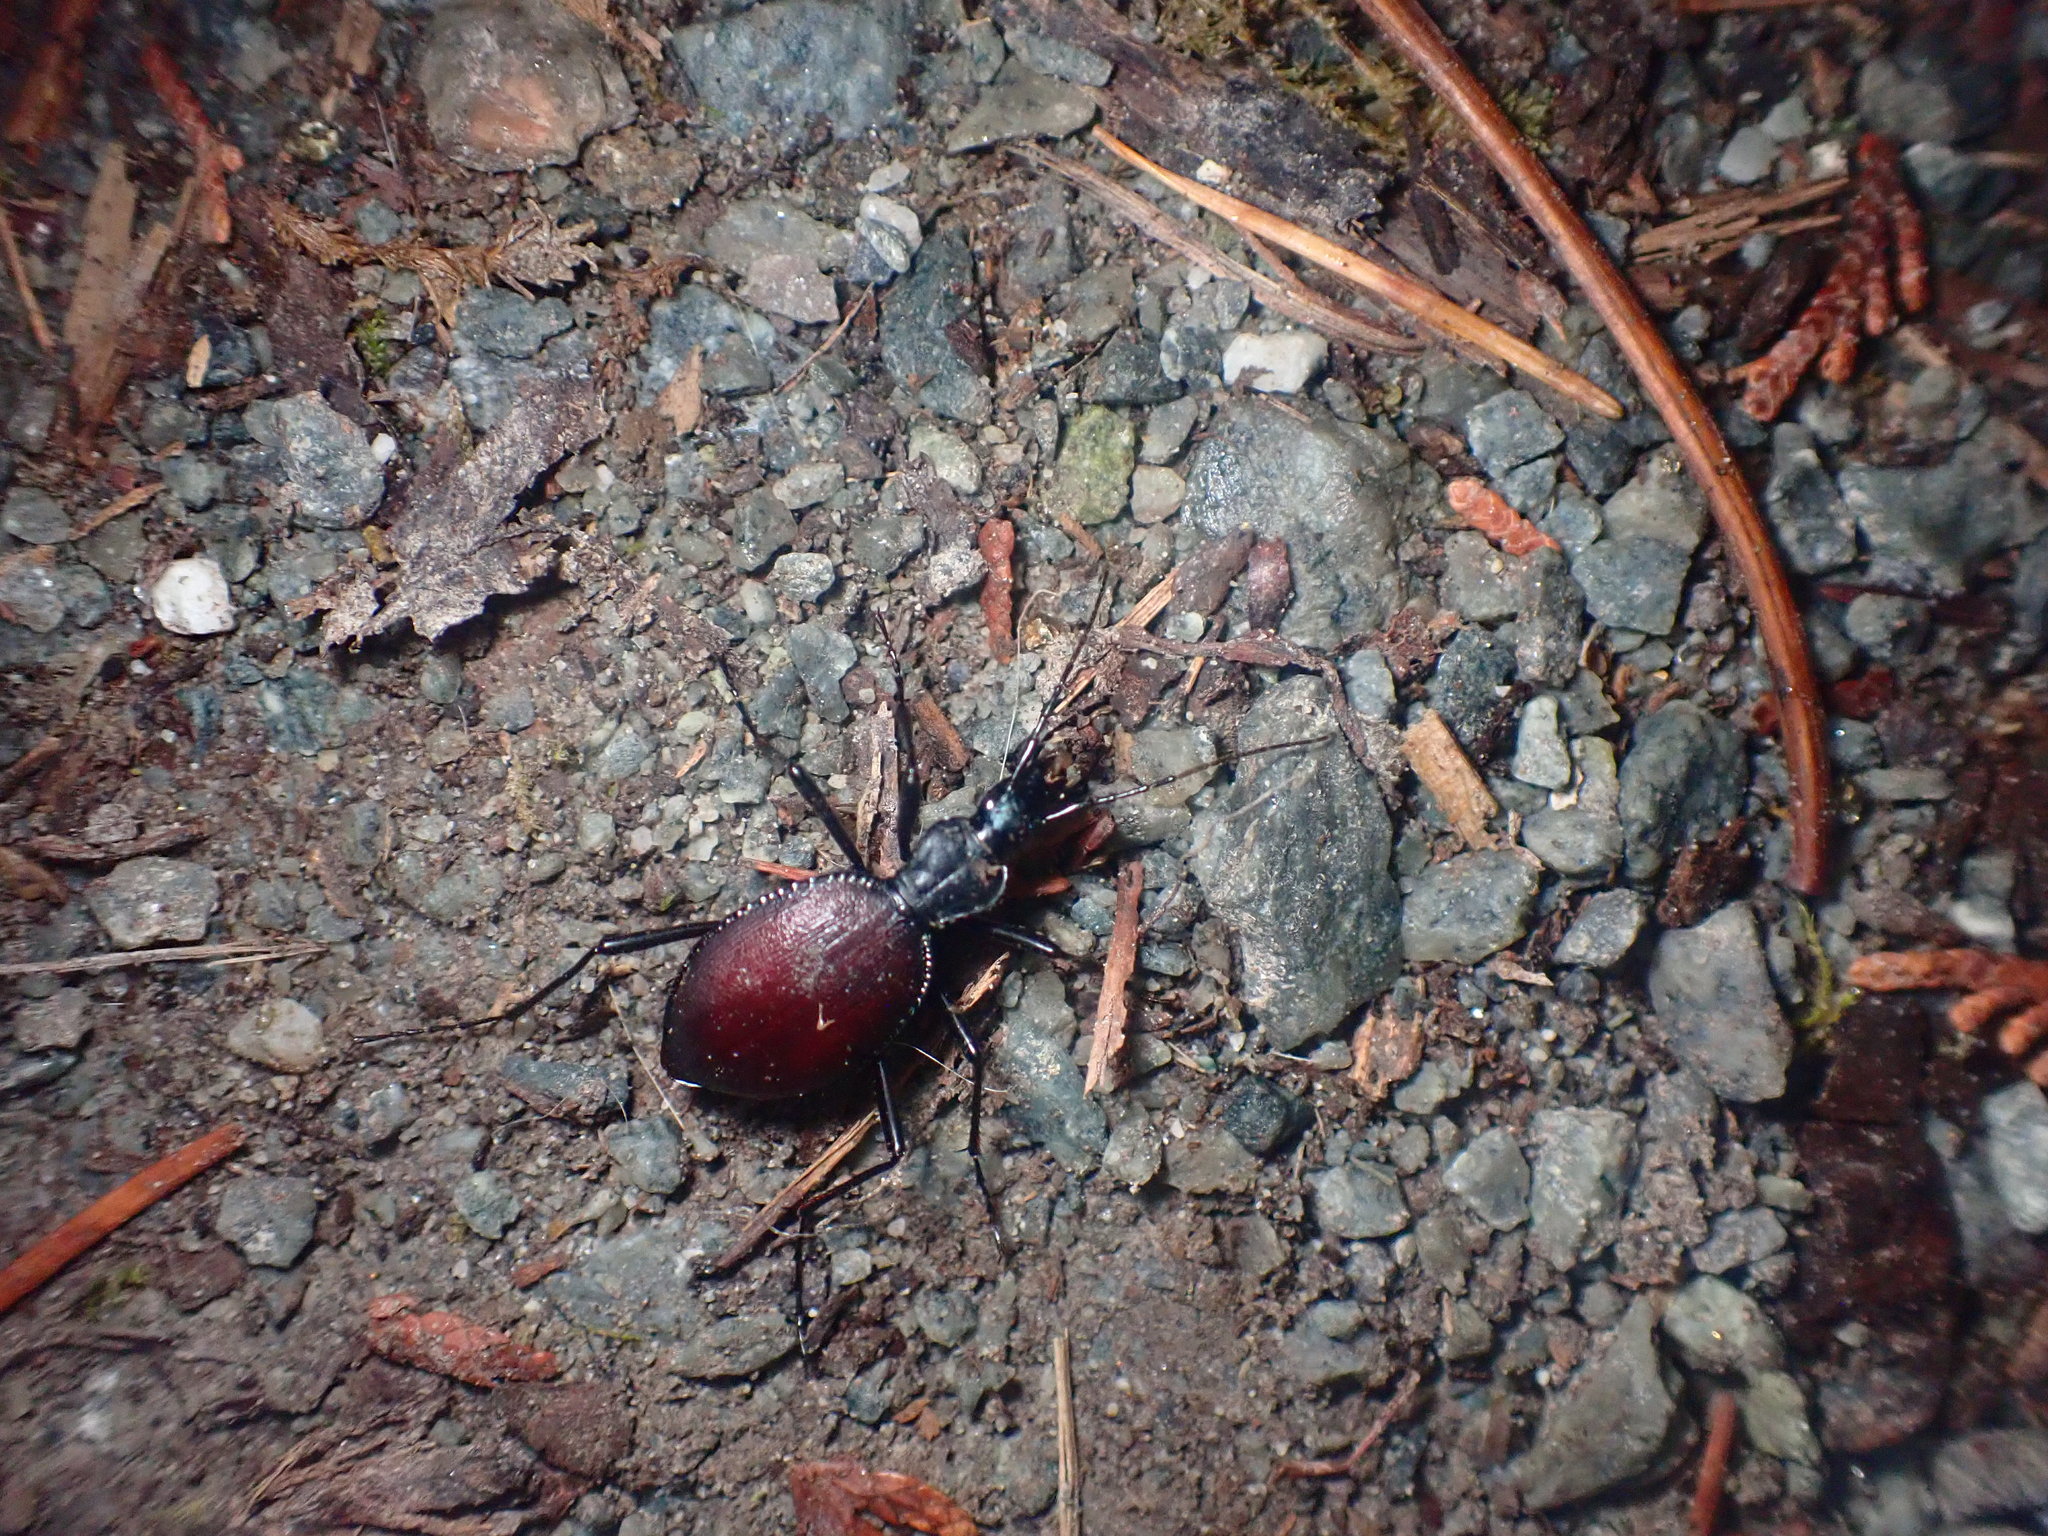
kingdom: Animalia
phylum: Arthropoda
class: Insecta
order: Coleoptera
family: Carabidae
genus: Scaphinotus
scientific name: Scaphinotus angusticollis
